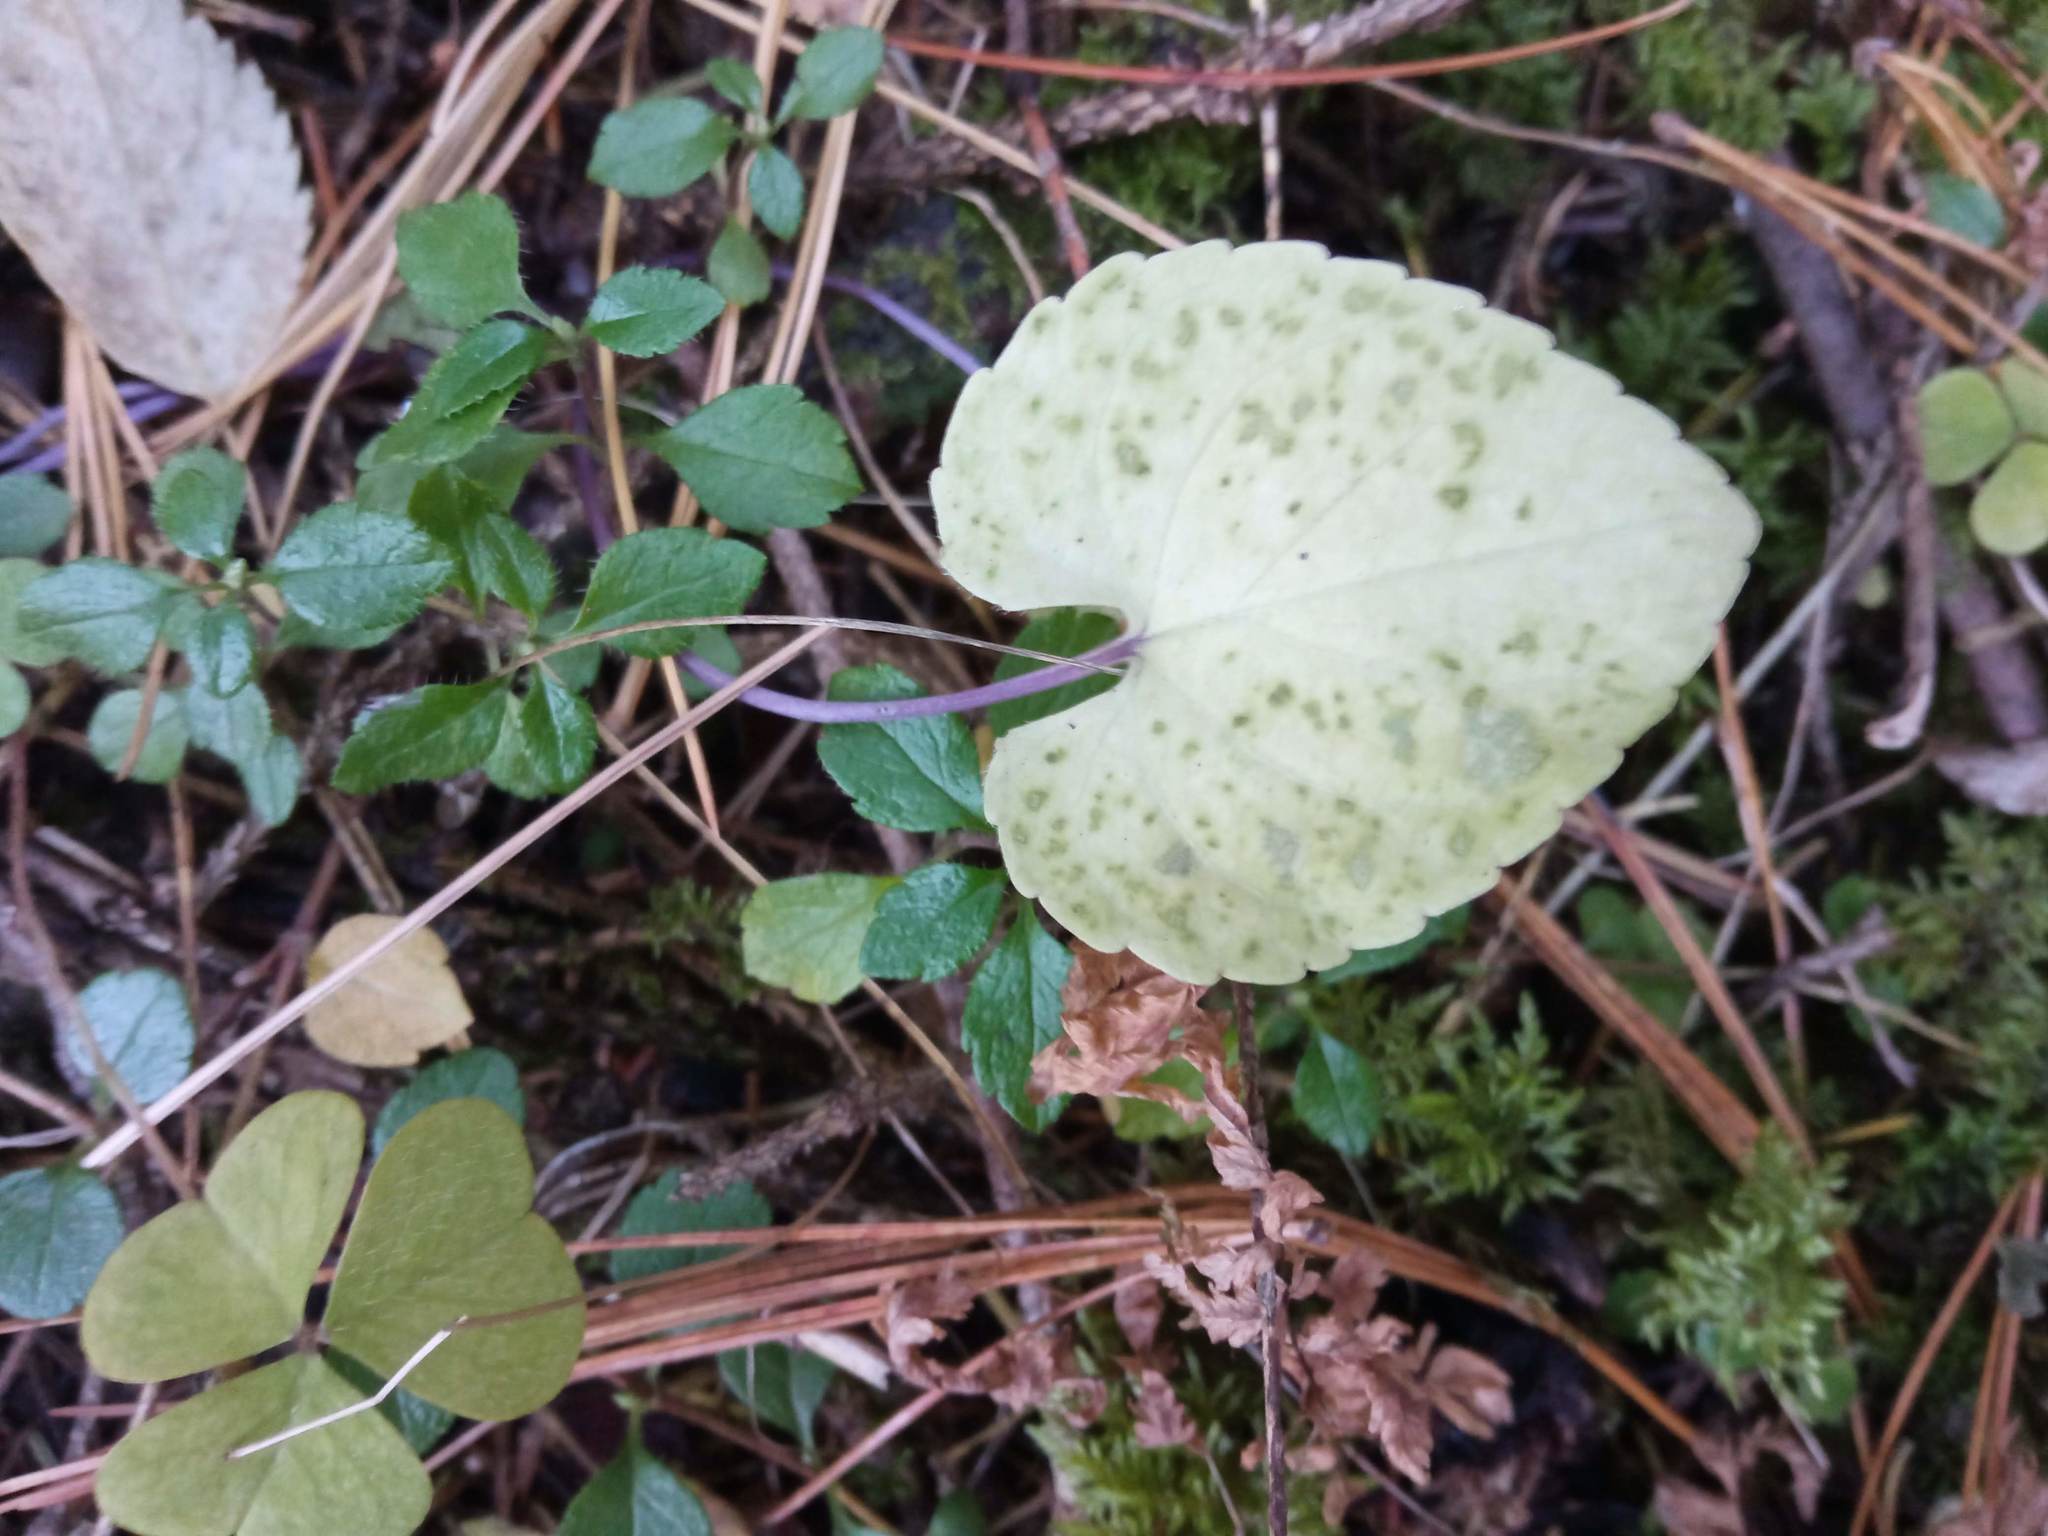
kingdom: Plantae
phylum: Tracheophyta
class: Magnoliopsida
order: Malpighiales
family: Violaceae
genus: Viola
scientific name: Viola selkirkii
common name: Selkirk's violet
